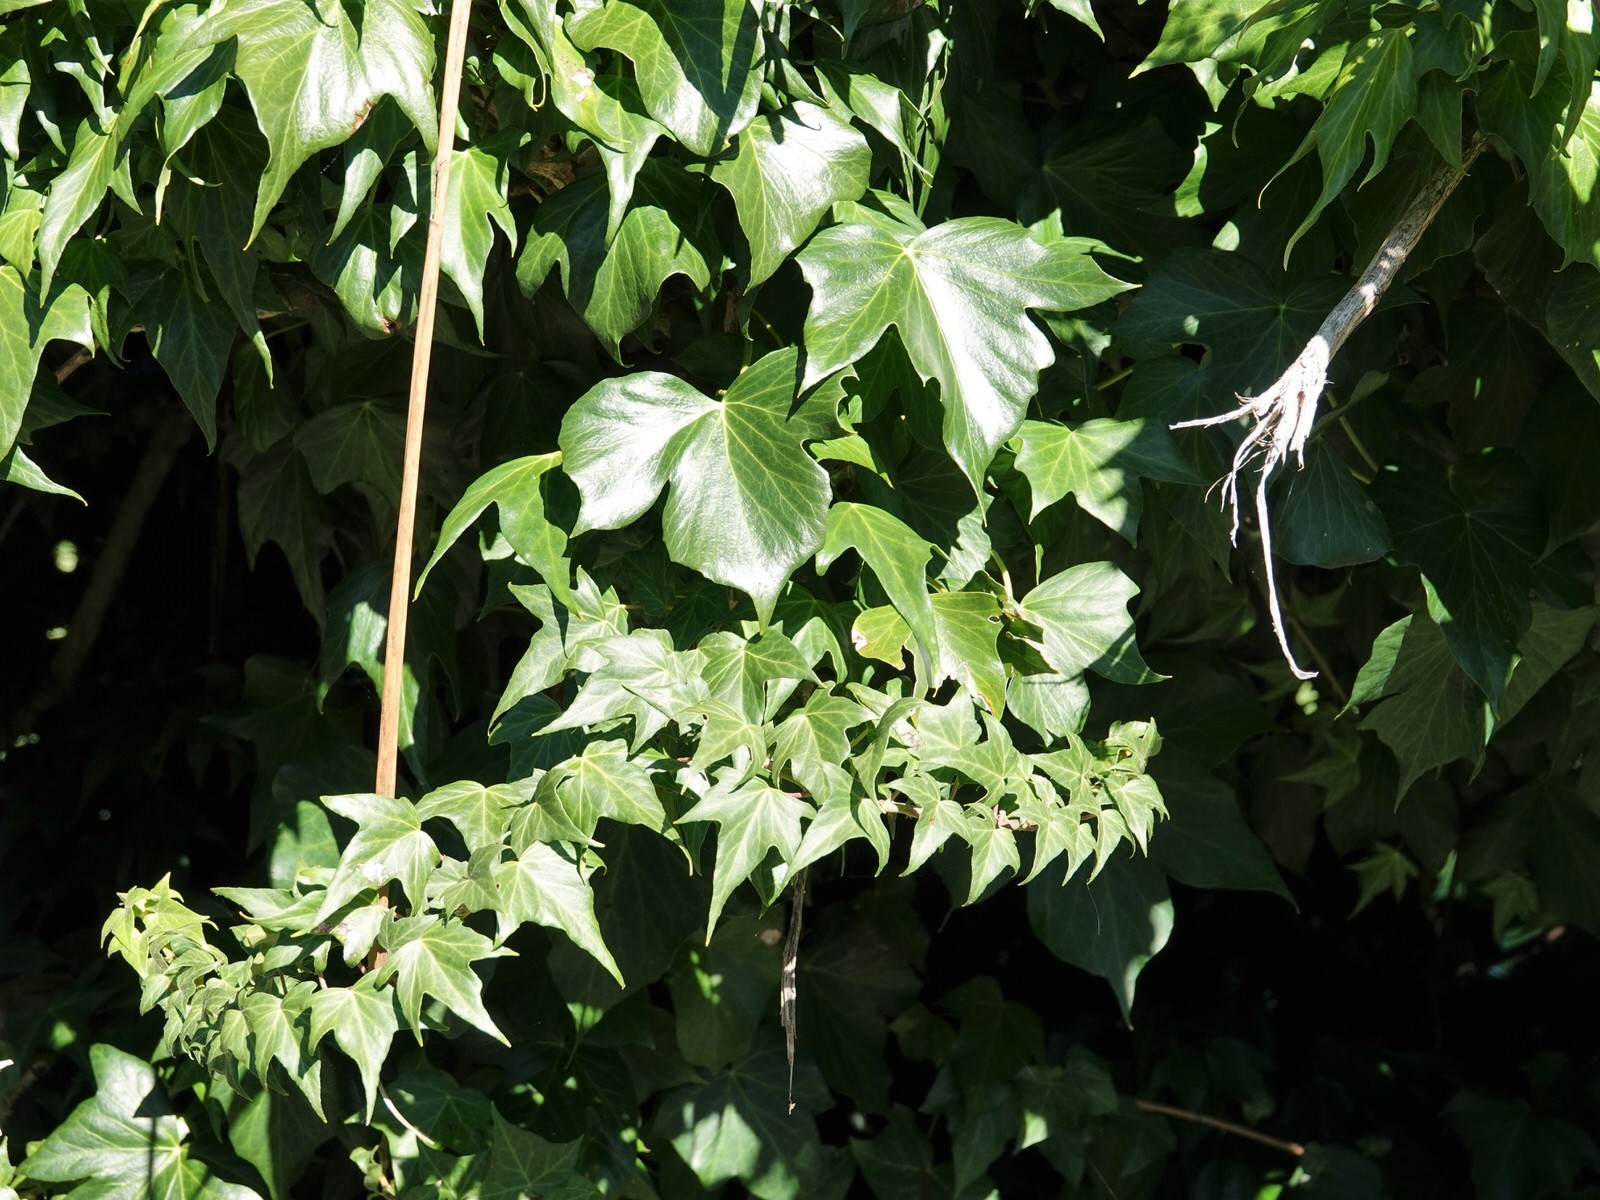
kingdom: Plantae
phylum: Tracheophyta
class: Magnoliopsida
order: Apiales
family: Araliaceae
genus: Hedera
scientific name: Hedera helix
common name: Ivy
